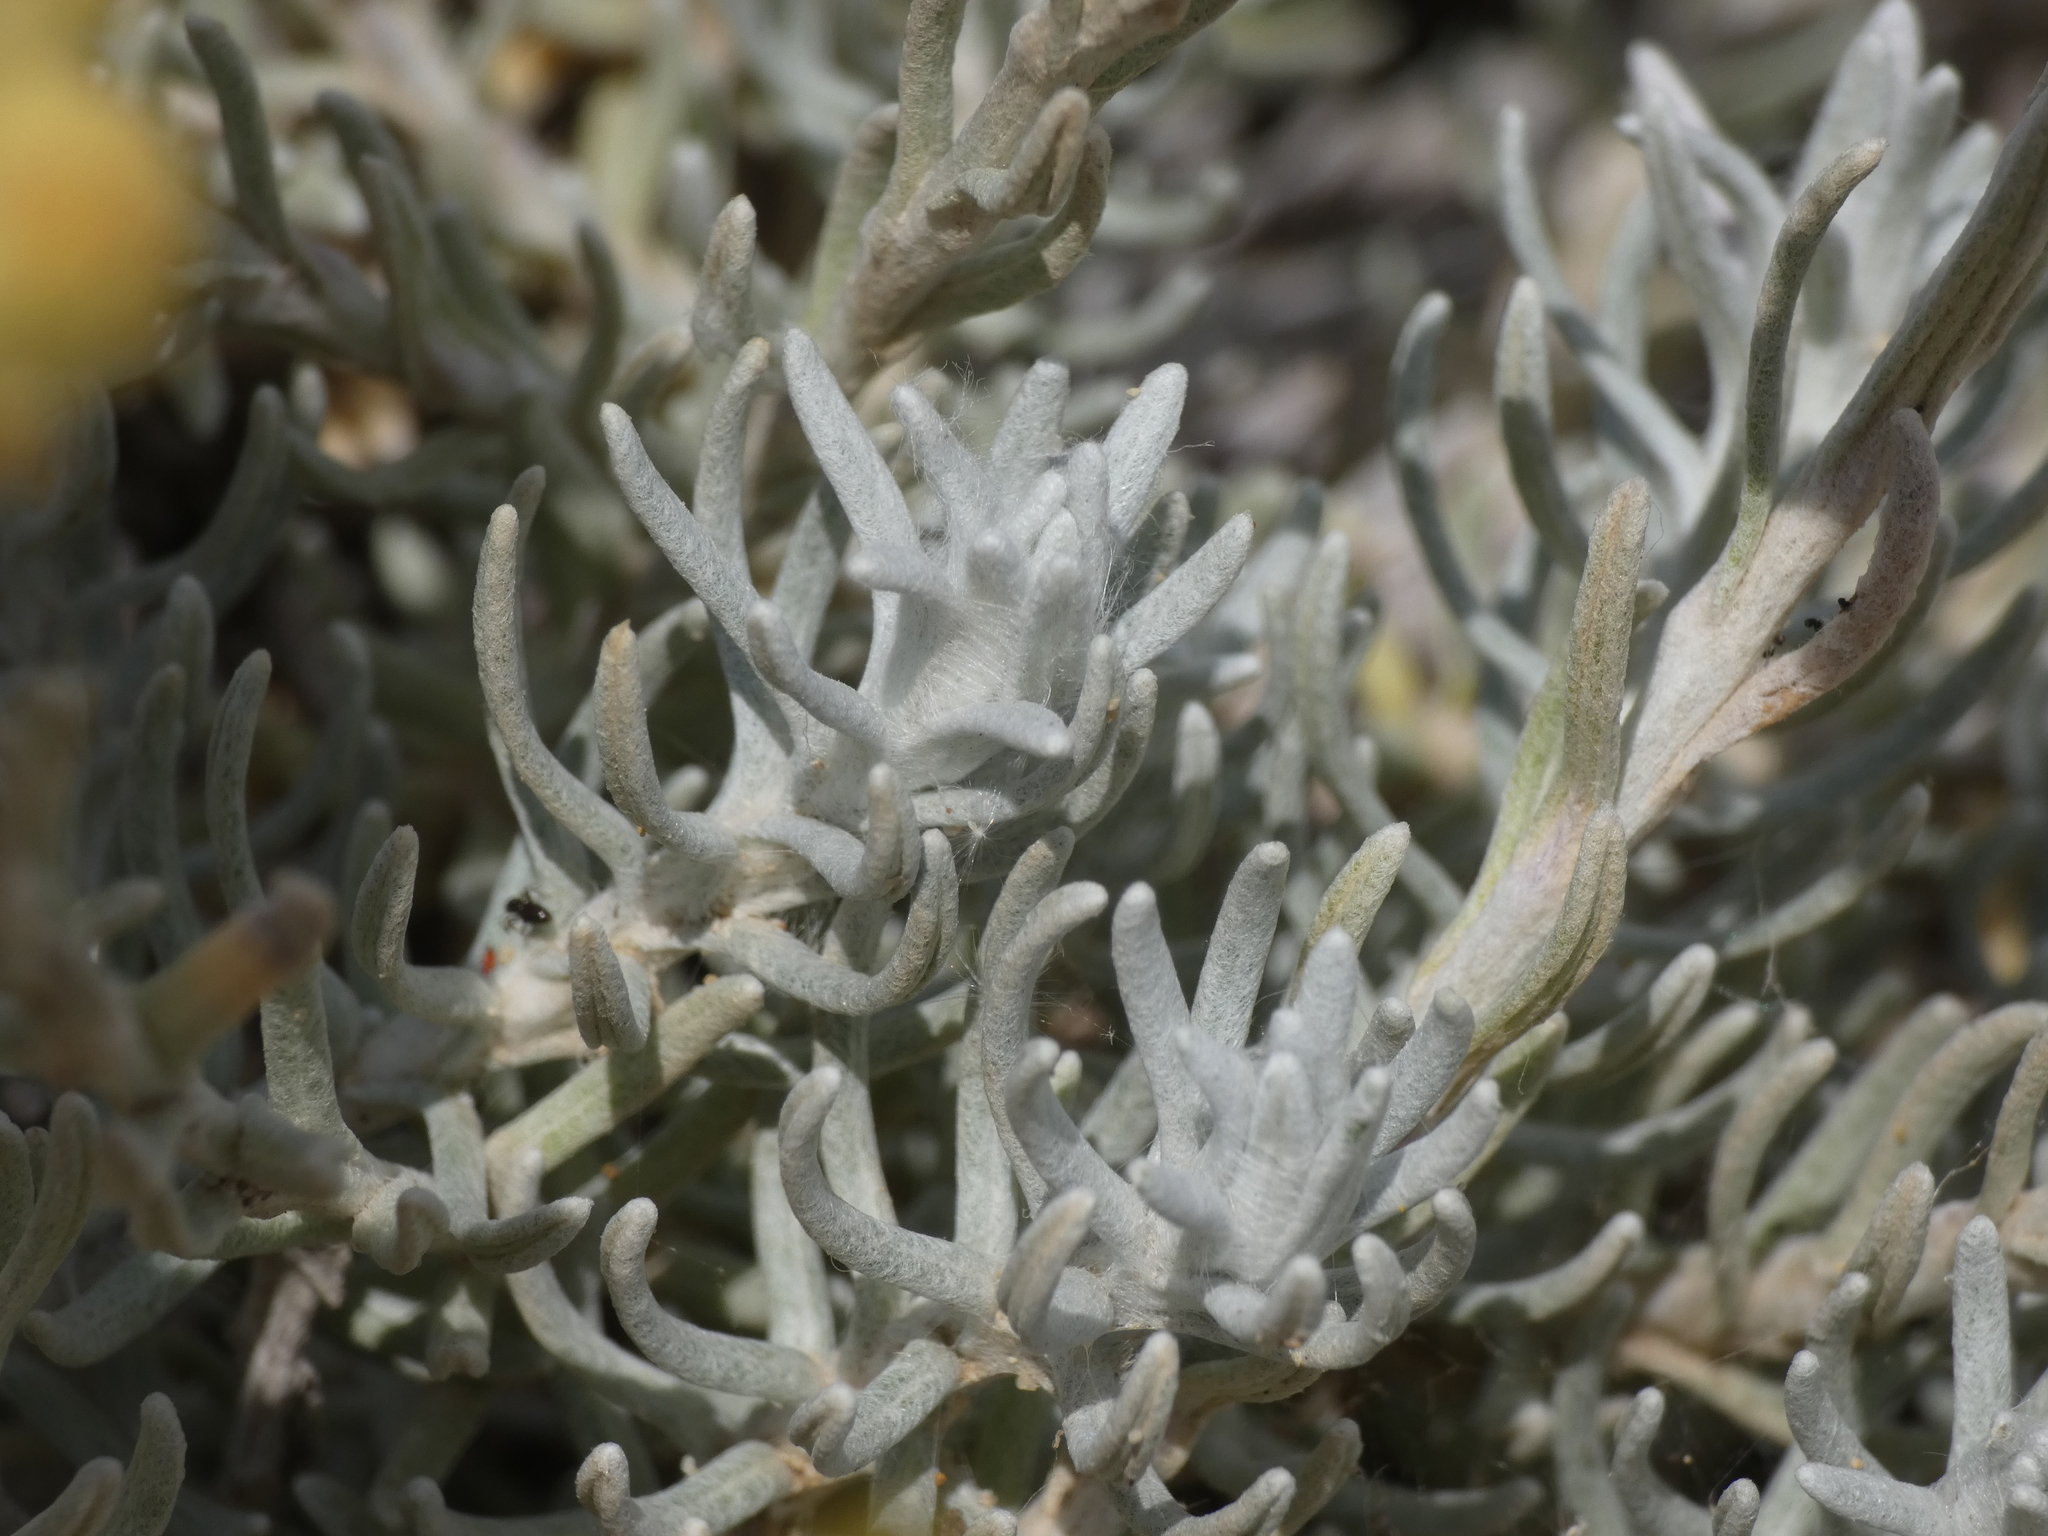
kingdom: Plantae
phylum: Tracheophyta
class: Magnoliopsida
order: Asterales
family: Asteraceae
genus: Helichrysum
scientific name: Helichrysum stoechas
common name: Goldilocks
